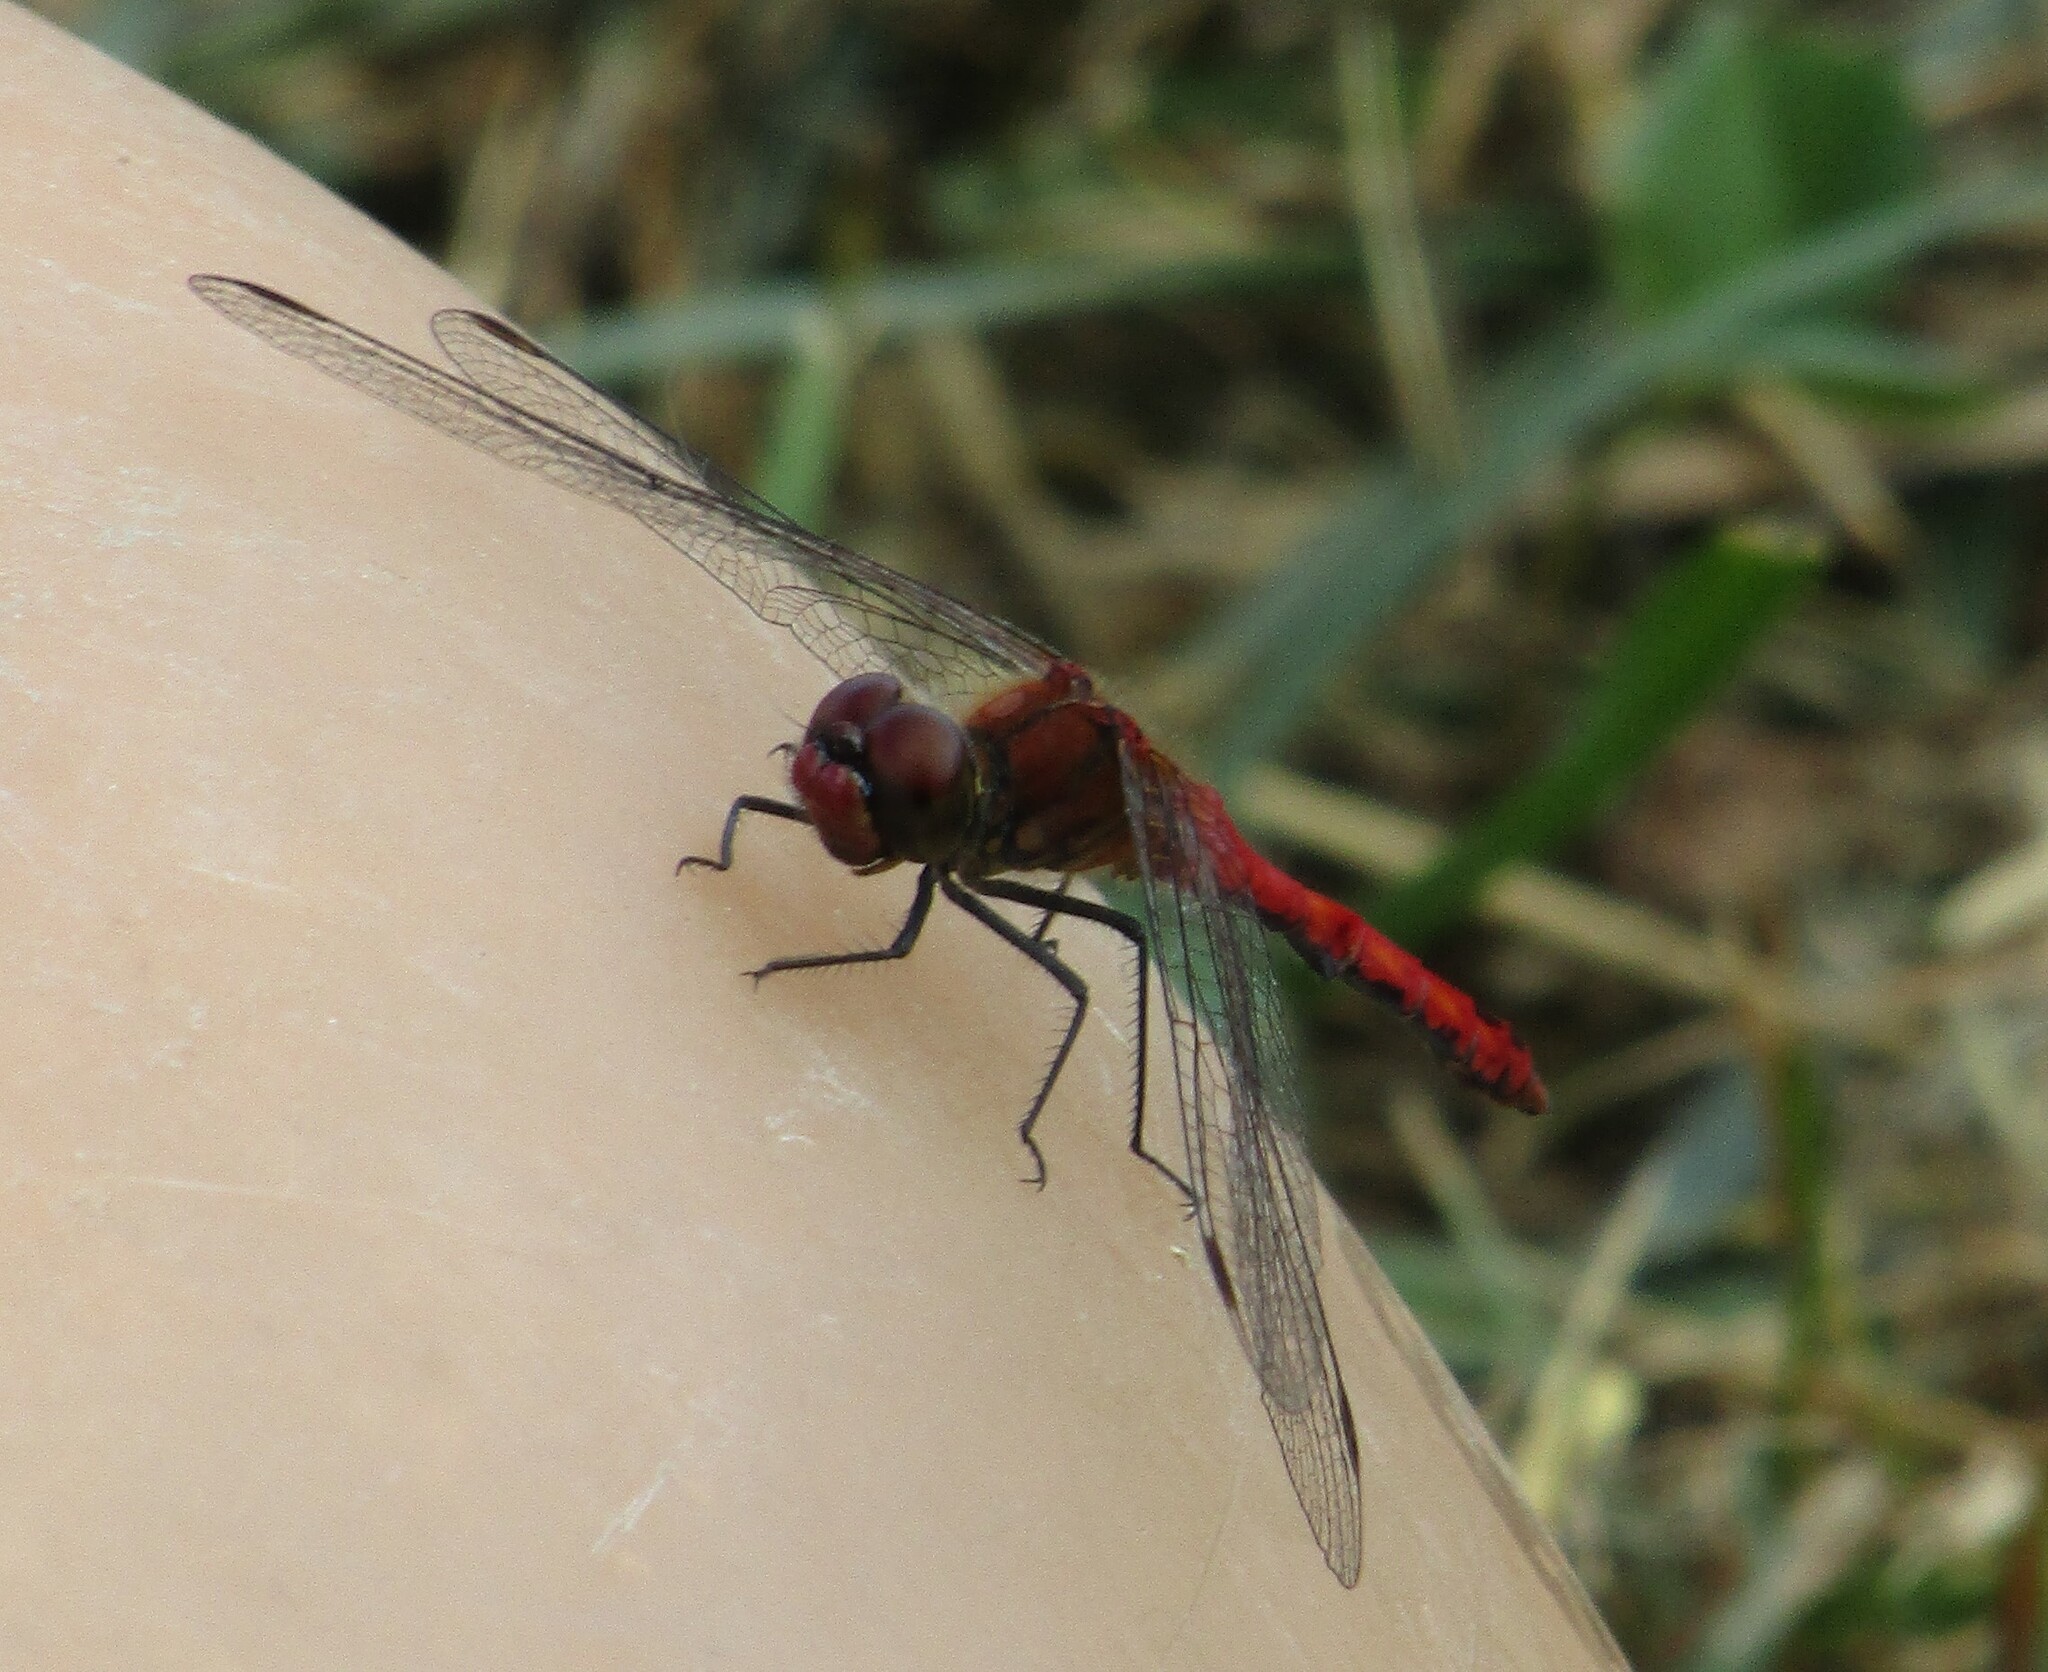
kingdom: Animalia
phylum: Arthropoda
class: Insecta
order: Odonata
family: Libellulidae
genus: Sympetrum
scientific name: Sympetrum sanguineum
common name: Ruddy darter
